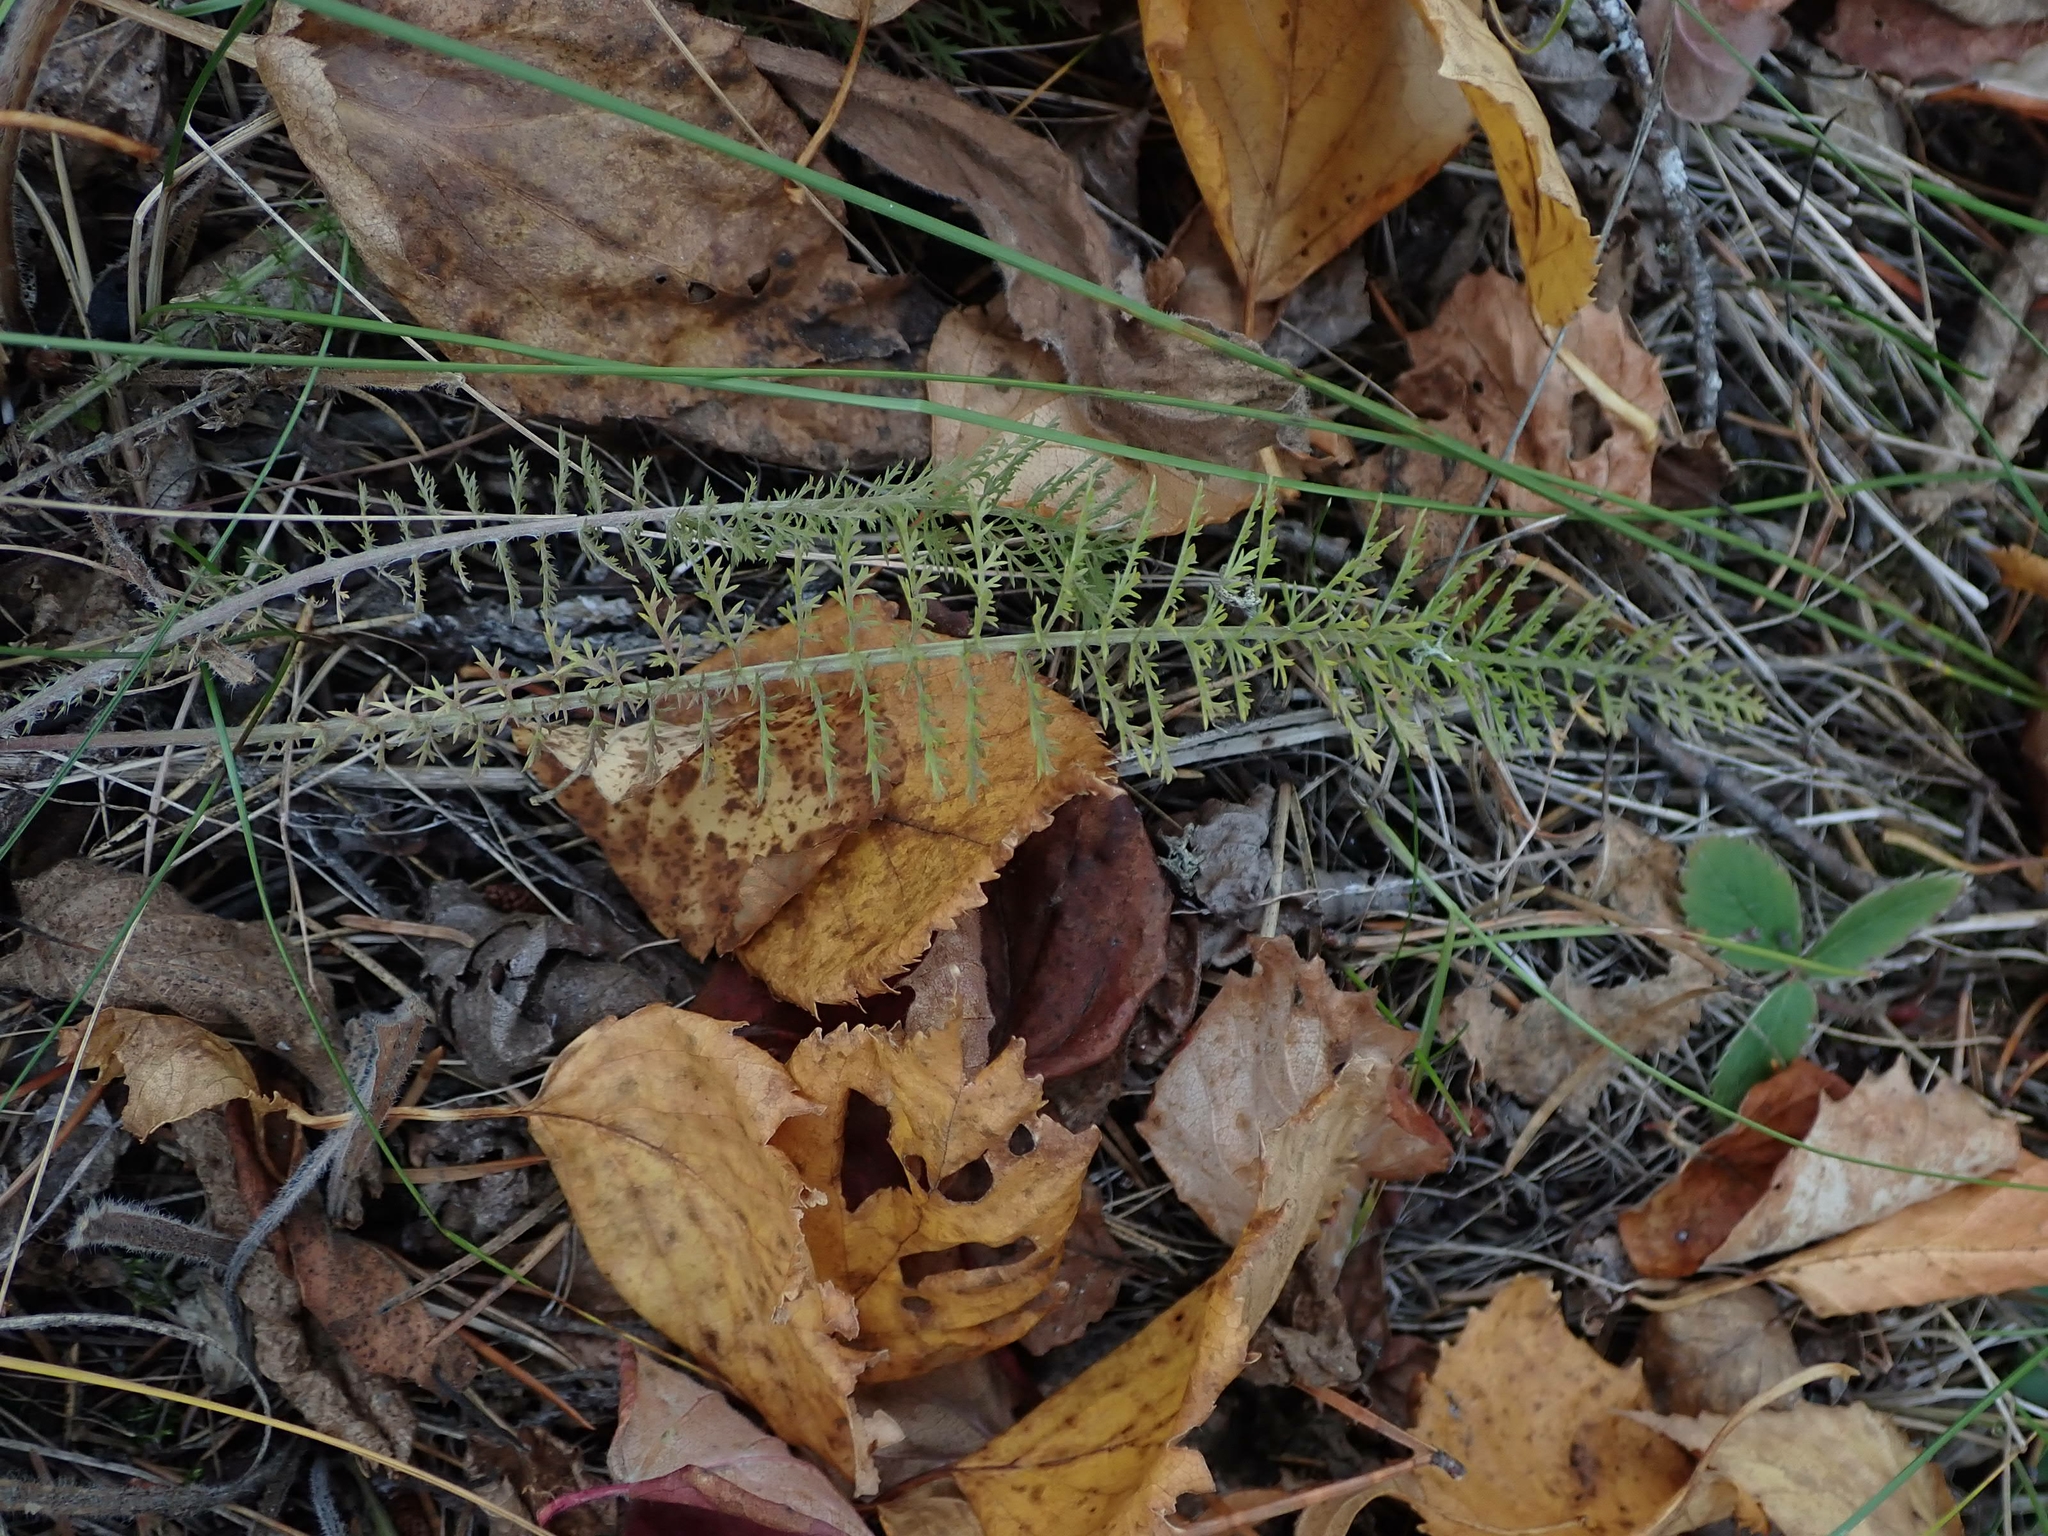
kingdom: Plantae
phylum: Tracheophyta
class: Magnoliopsida
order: Asterales
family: Asteraceae
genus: Achillea
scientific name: Achillea millefolium
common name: Yarrow
